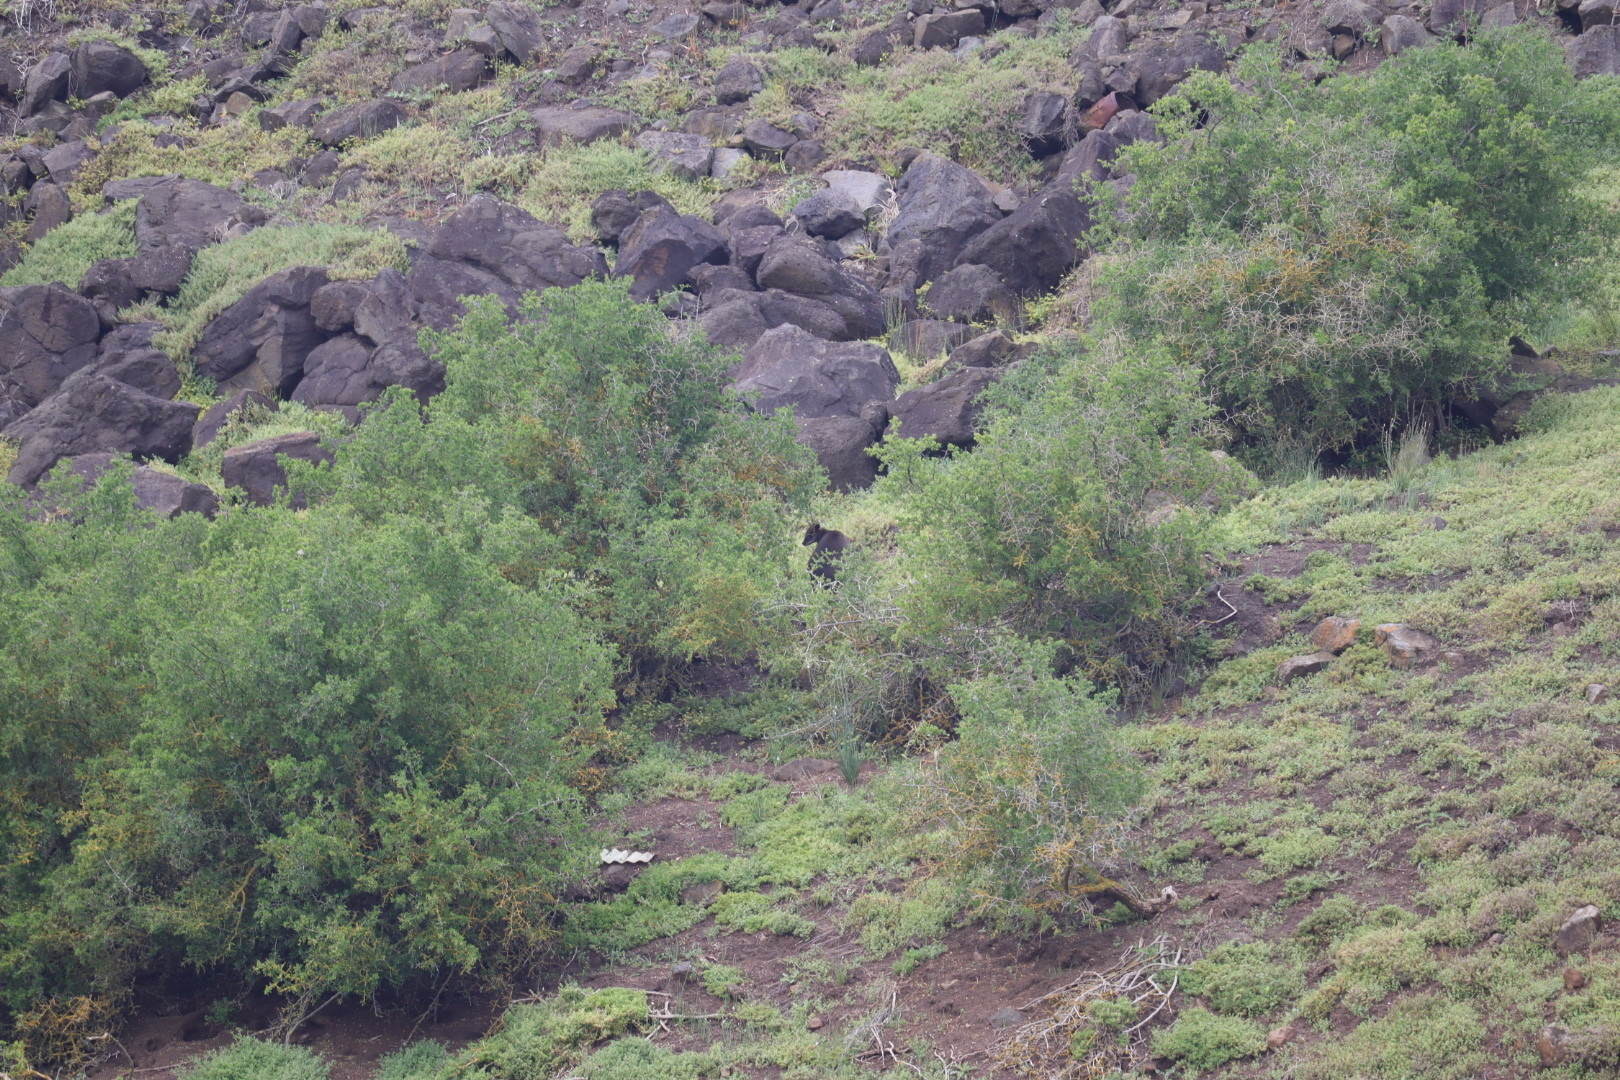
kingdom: Animalia
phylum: Chordata
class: Mammalia
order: Diprotodontia
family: Macropodidae
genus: Wallabia
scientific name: Wallabia bicolor
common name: Swamp wallaby
